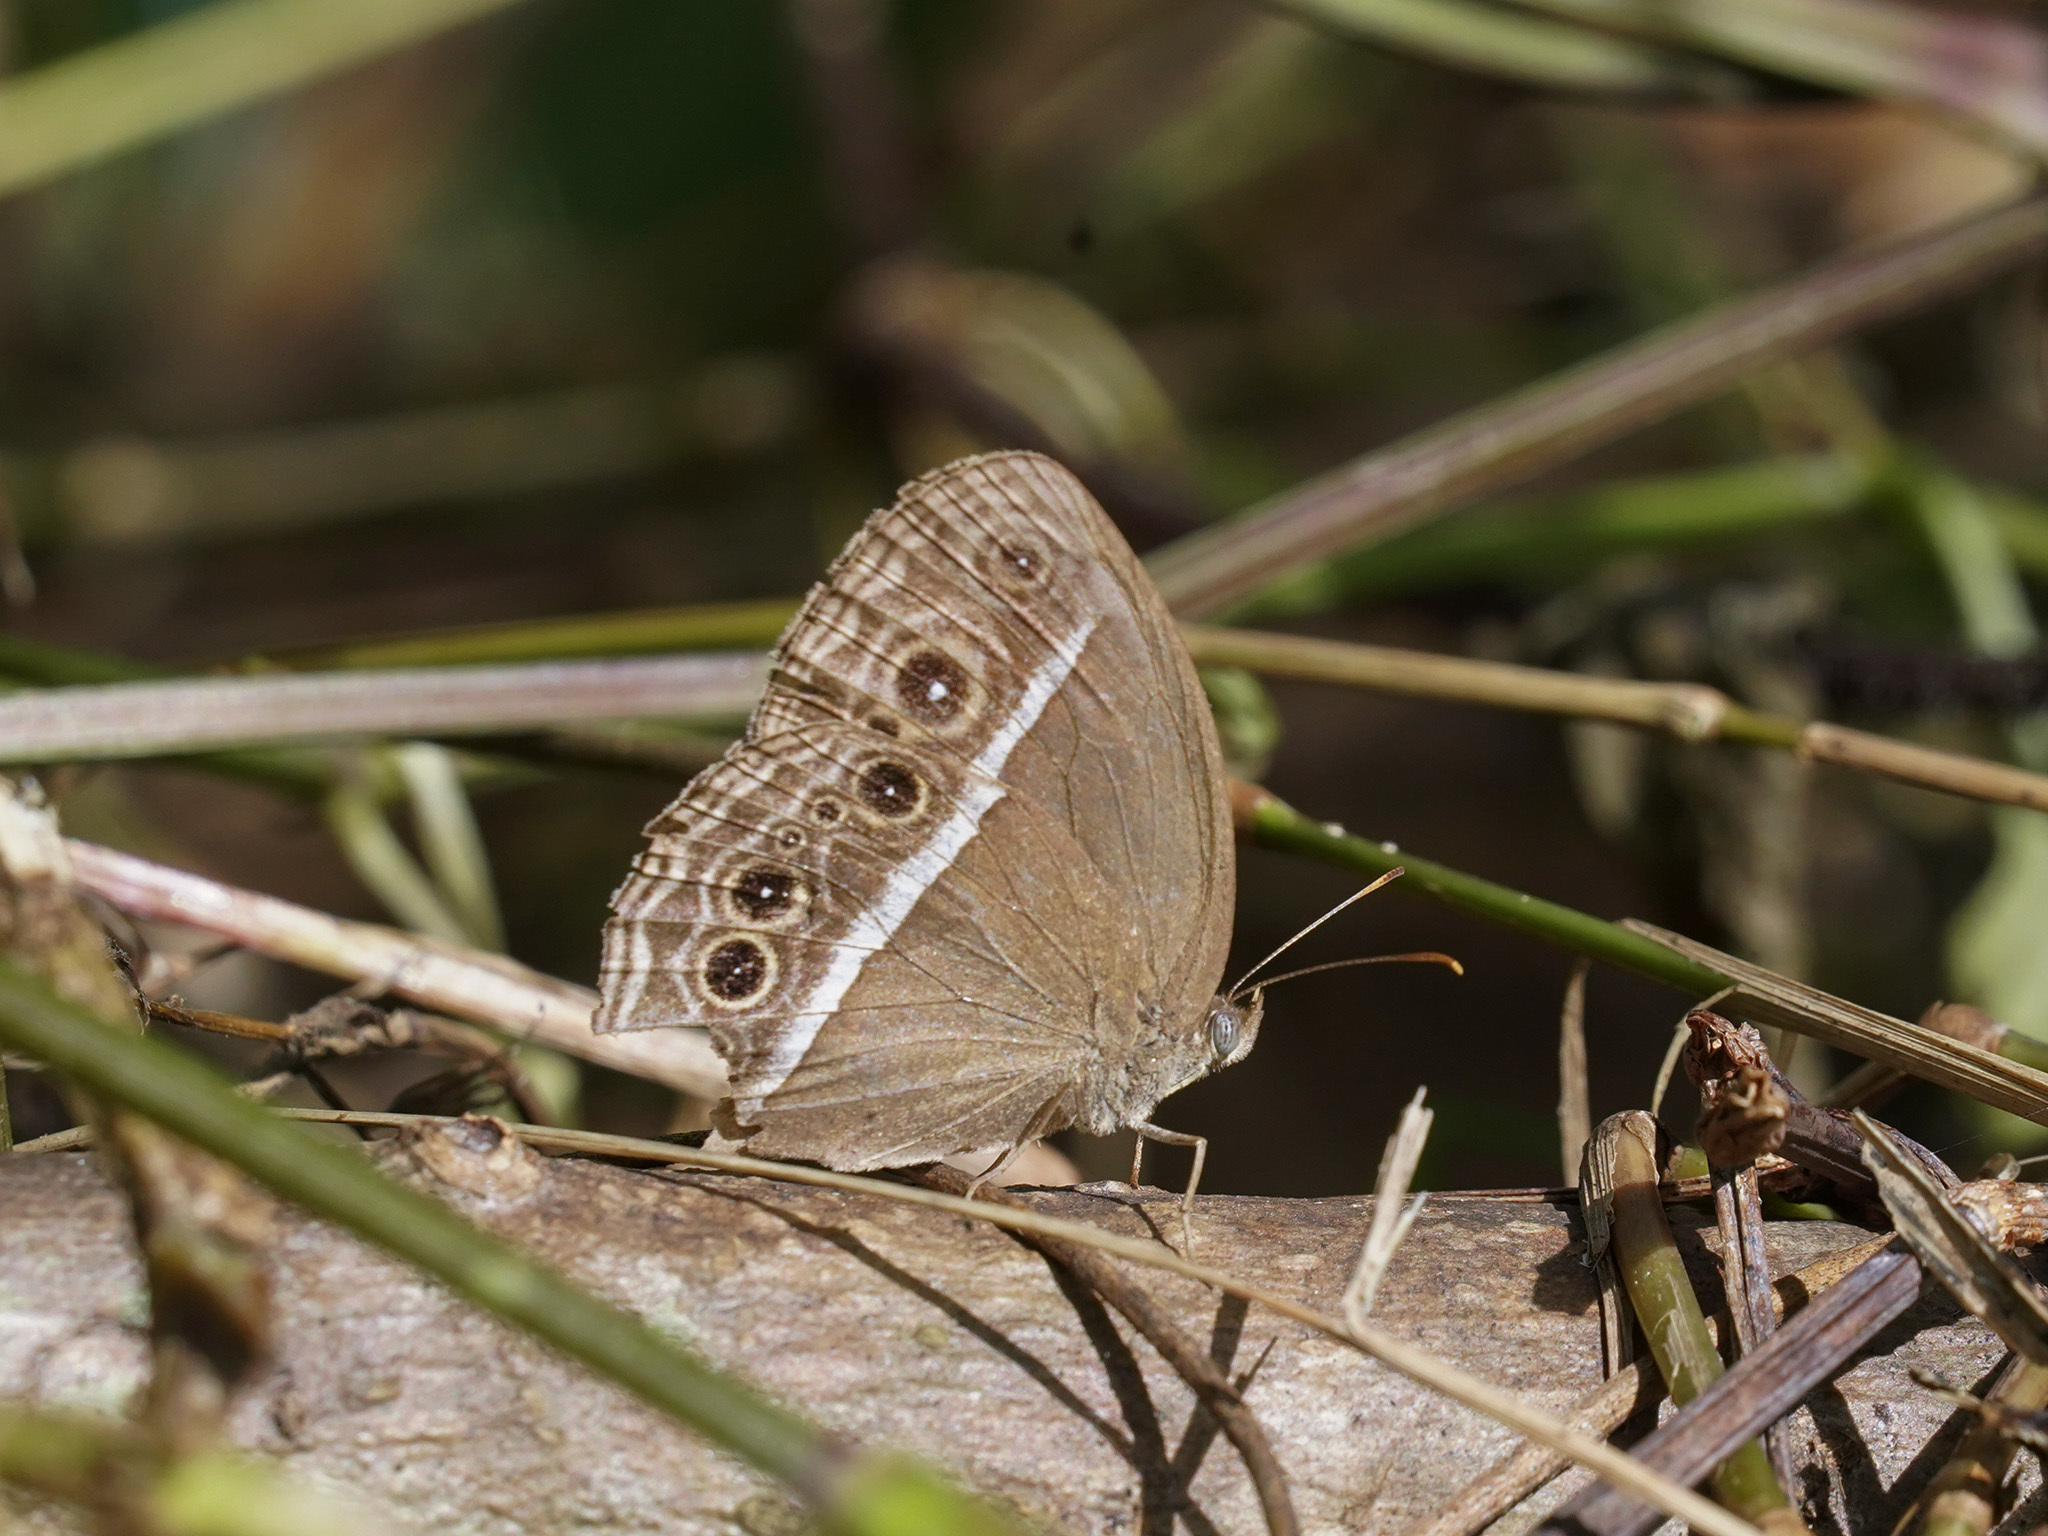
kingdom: Animalia
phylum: Arthropoda
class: Insecta
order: Lepidoptera
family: Nymphalidae
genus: Mycalesis
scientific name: Mycalesis mineus
